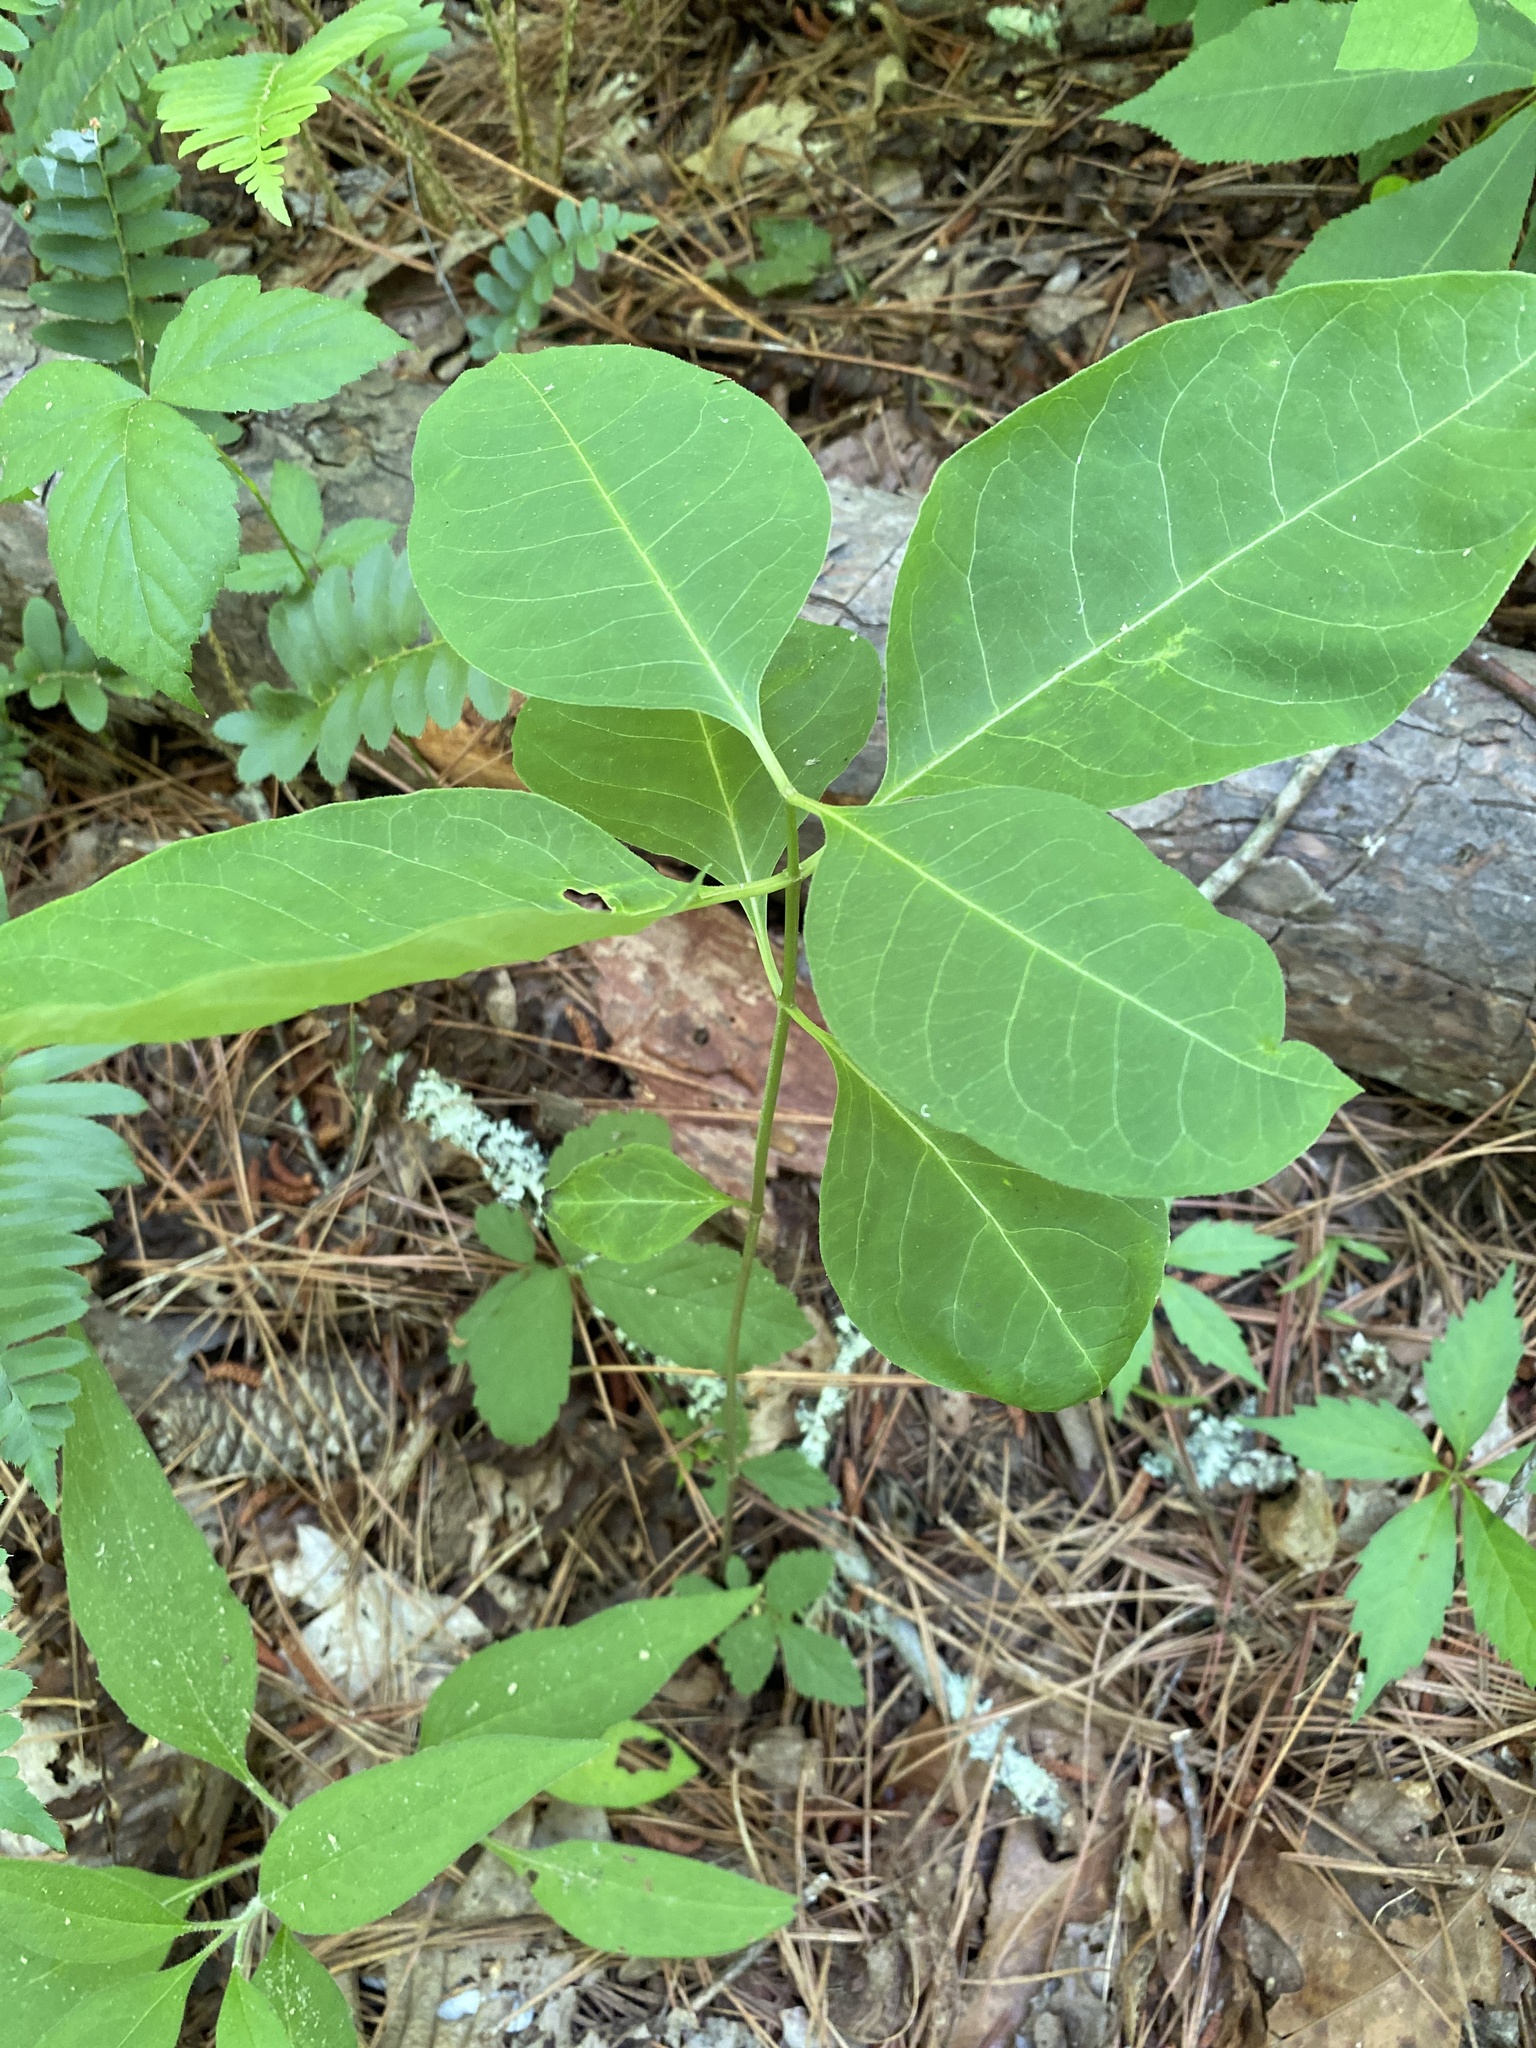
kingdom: Plantae
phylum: Tracheophyta
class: Magnoliopsida
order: Gentianales
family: Apocynaceae
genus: Asclepias
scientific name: Asclepias variegata
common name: Variegated milkweed
